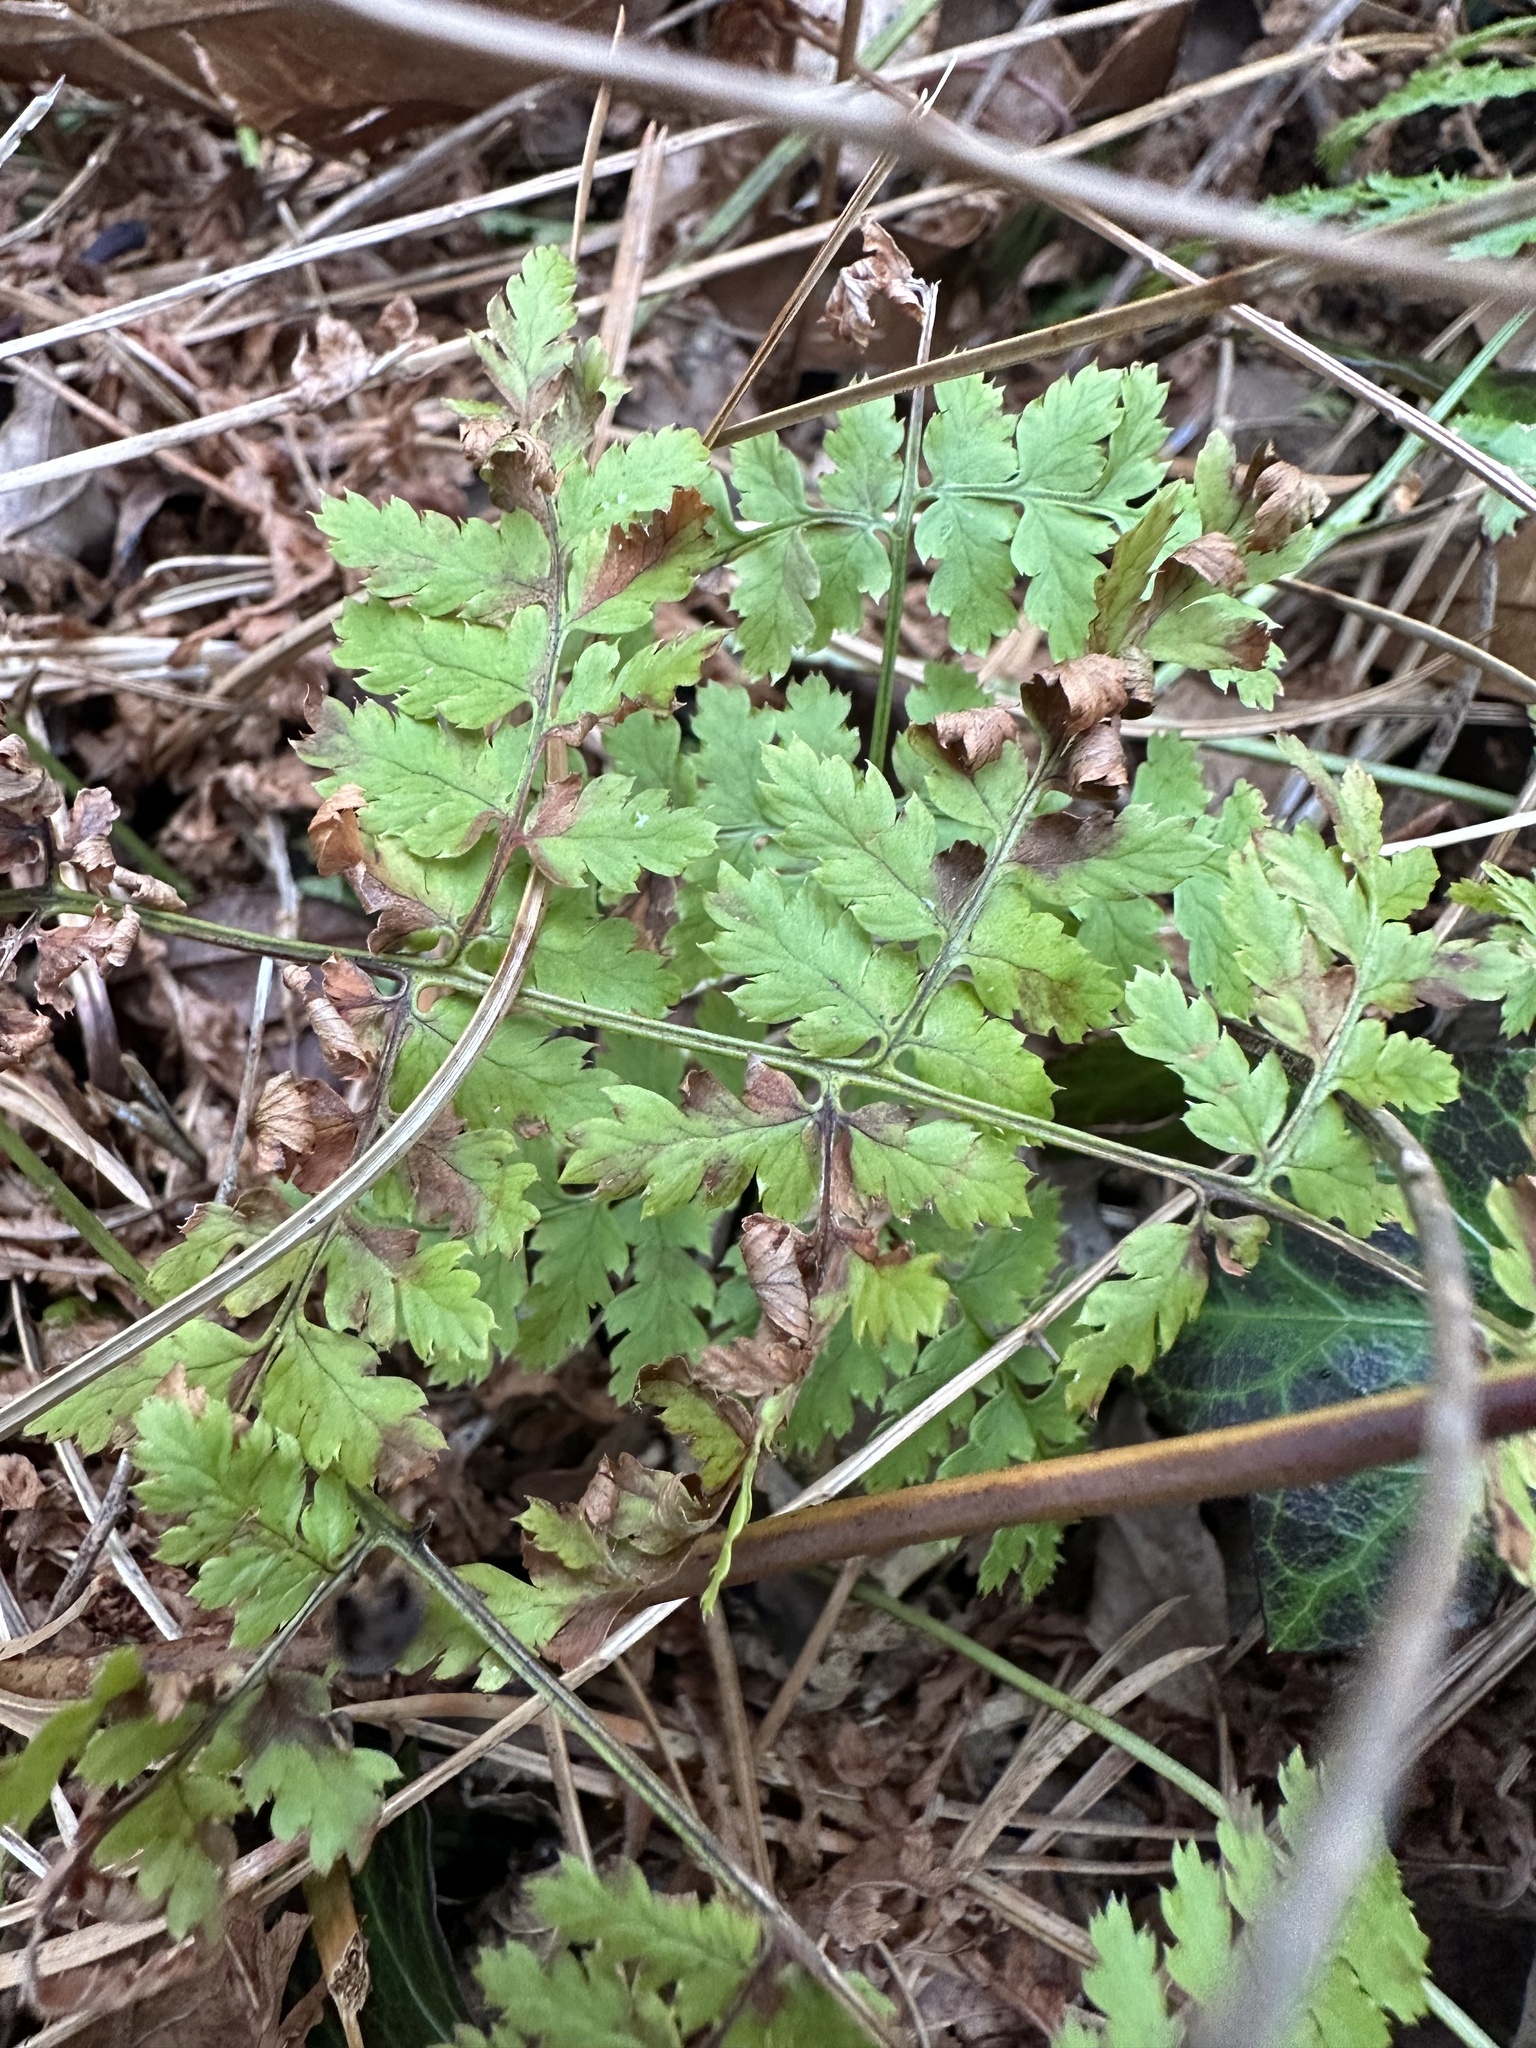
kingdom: Plantae
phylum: Tracheophyta
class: Polypodiopsida
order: Polypodiales
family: Dryopteridaceae
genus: Dryopteris
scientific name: Dryopteris intermedia
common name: Evergreen wood fern
